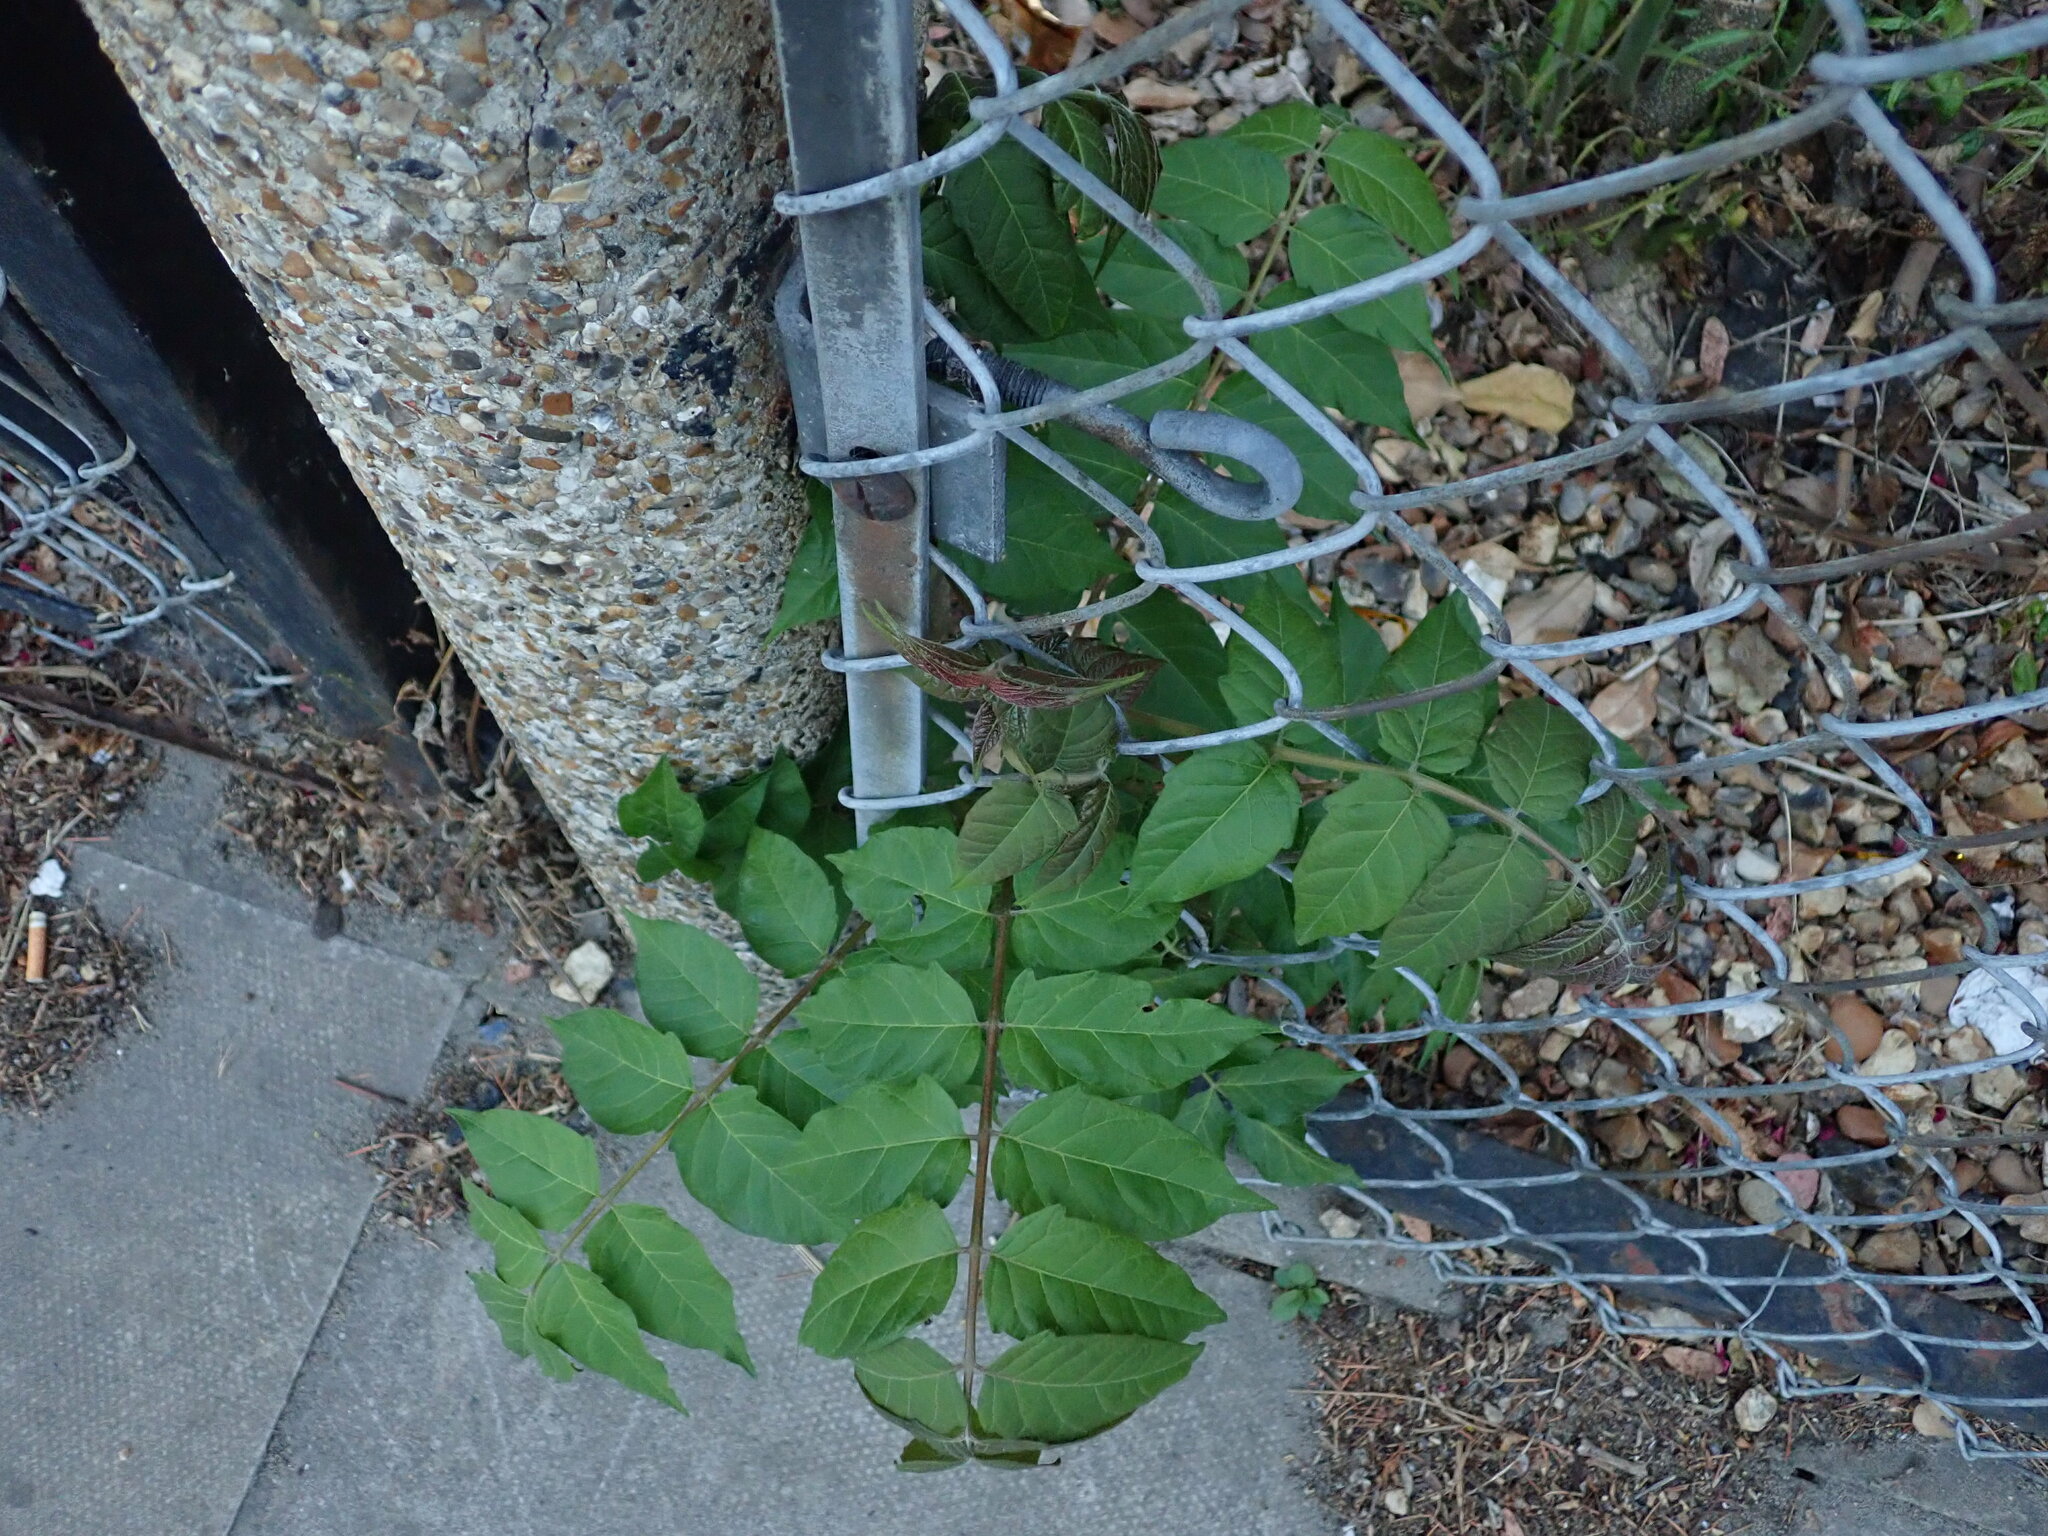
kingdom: Plantae
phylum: Tracheophyta
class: Magnoliopsida
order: Sapindales
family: Simaroubaceae
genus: Ailanthus
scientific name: Ailanthus altissima
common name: Tree-of-heaven
